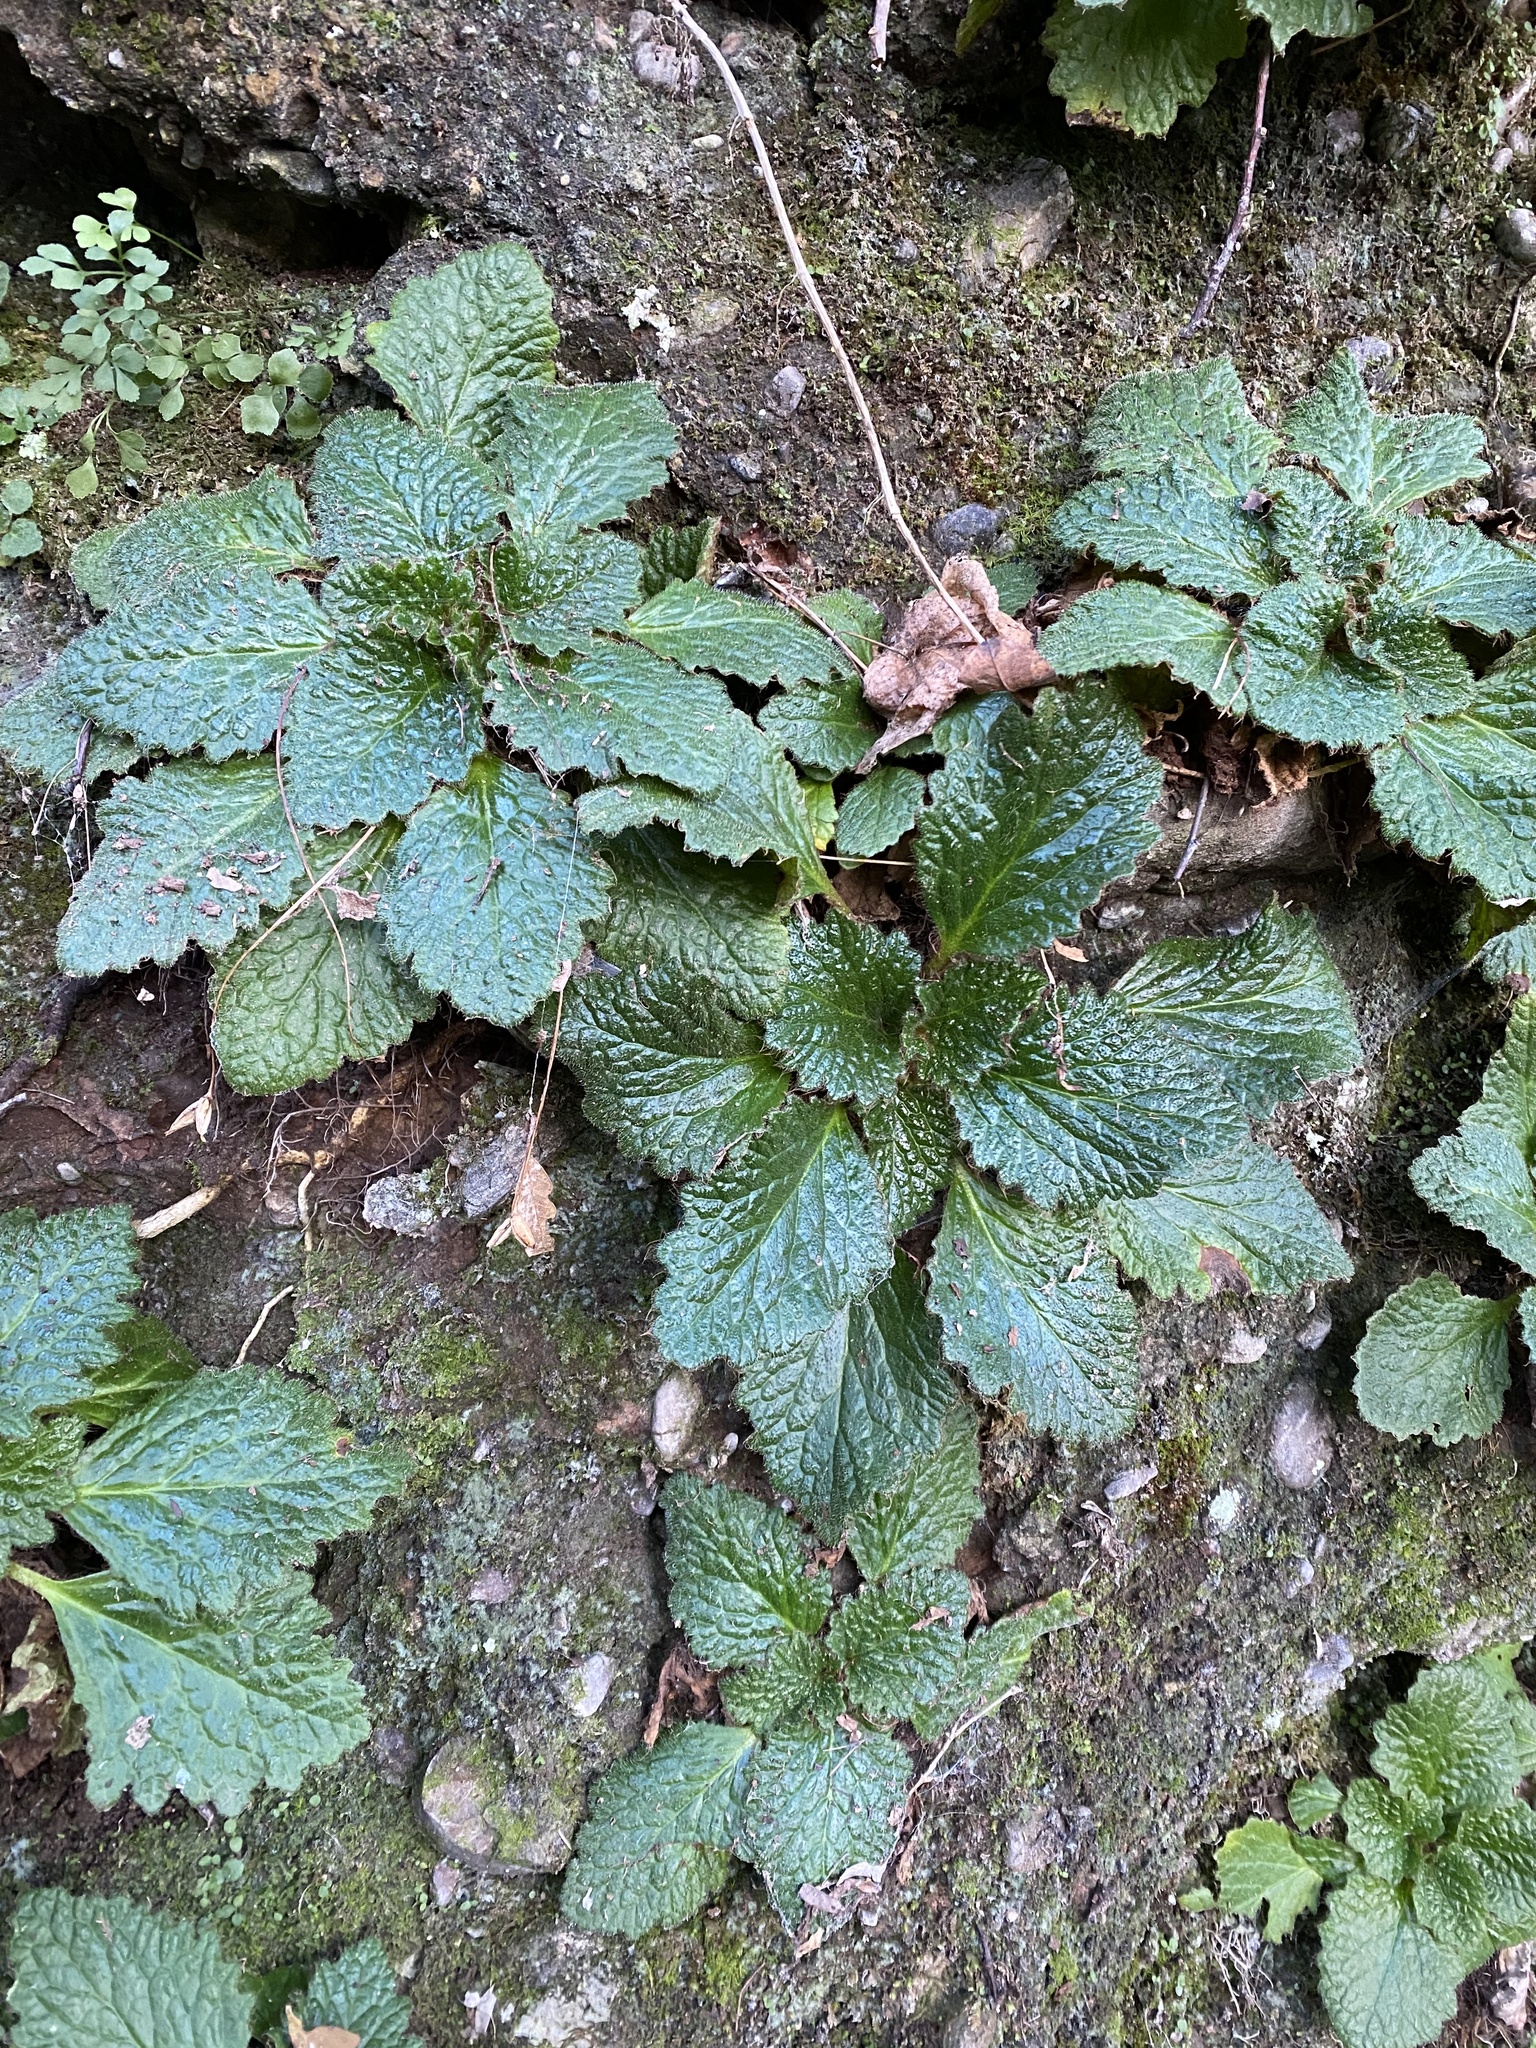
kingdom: Plantae
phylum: Tracheophyta
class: Magnoliopsida
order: Lamiales
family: Gesneriaceae
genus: Ramonda
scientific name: Ramonda myconi
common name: Pyrenean-violet
